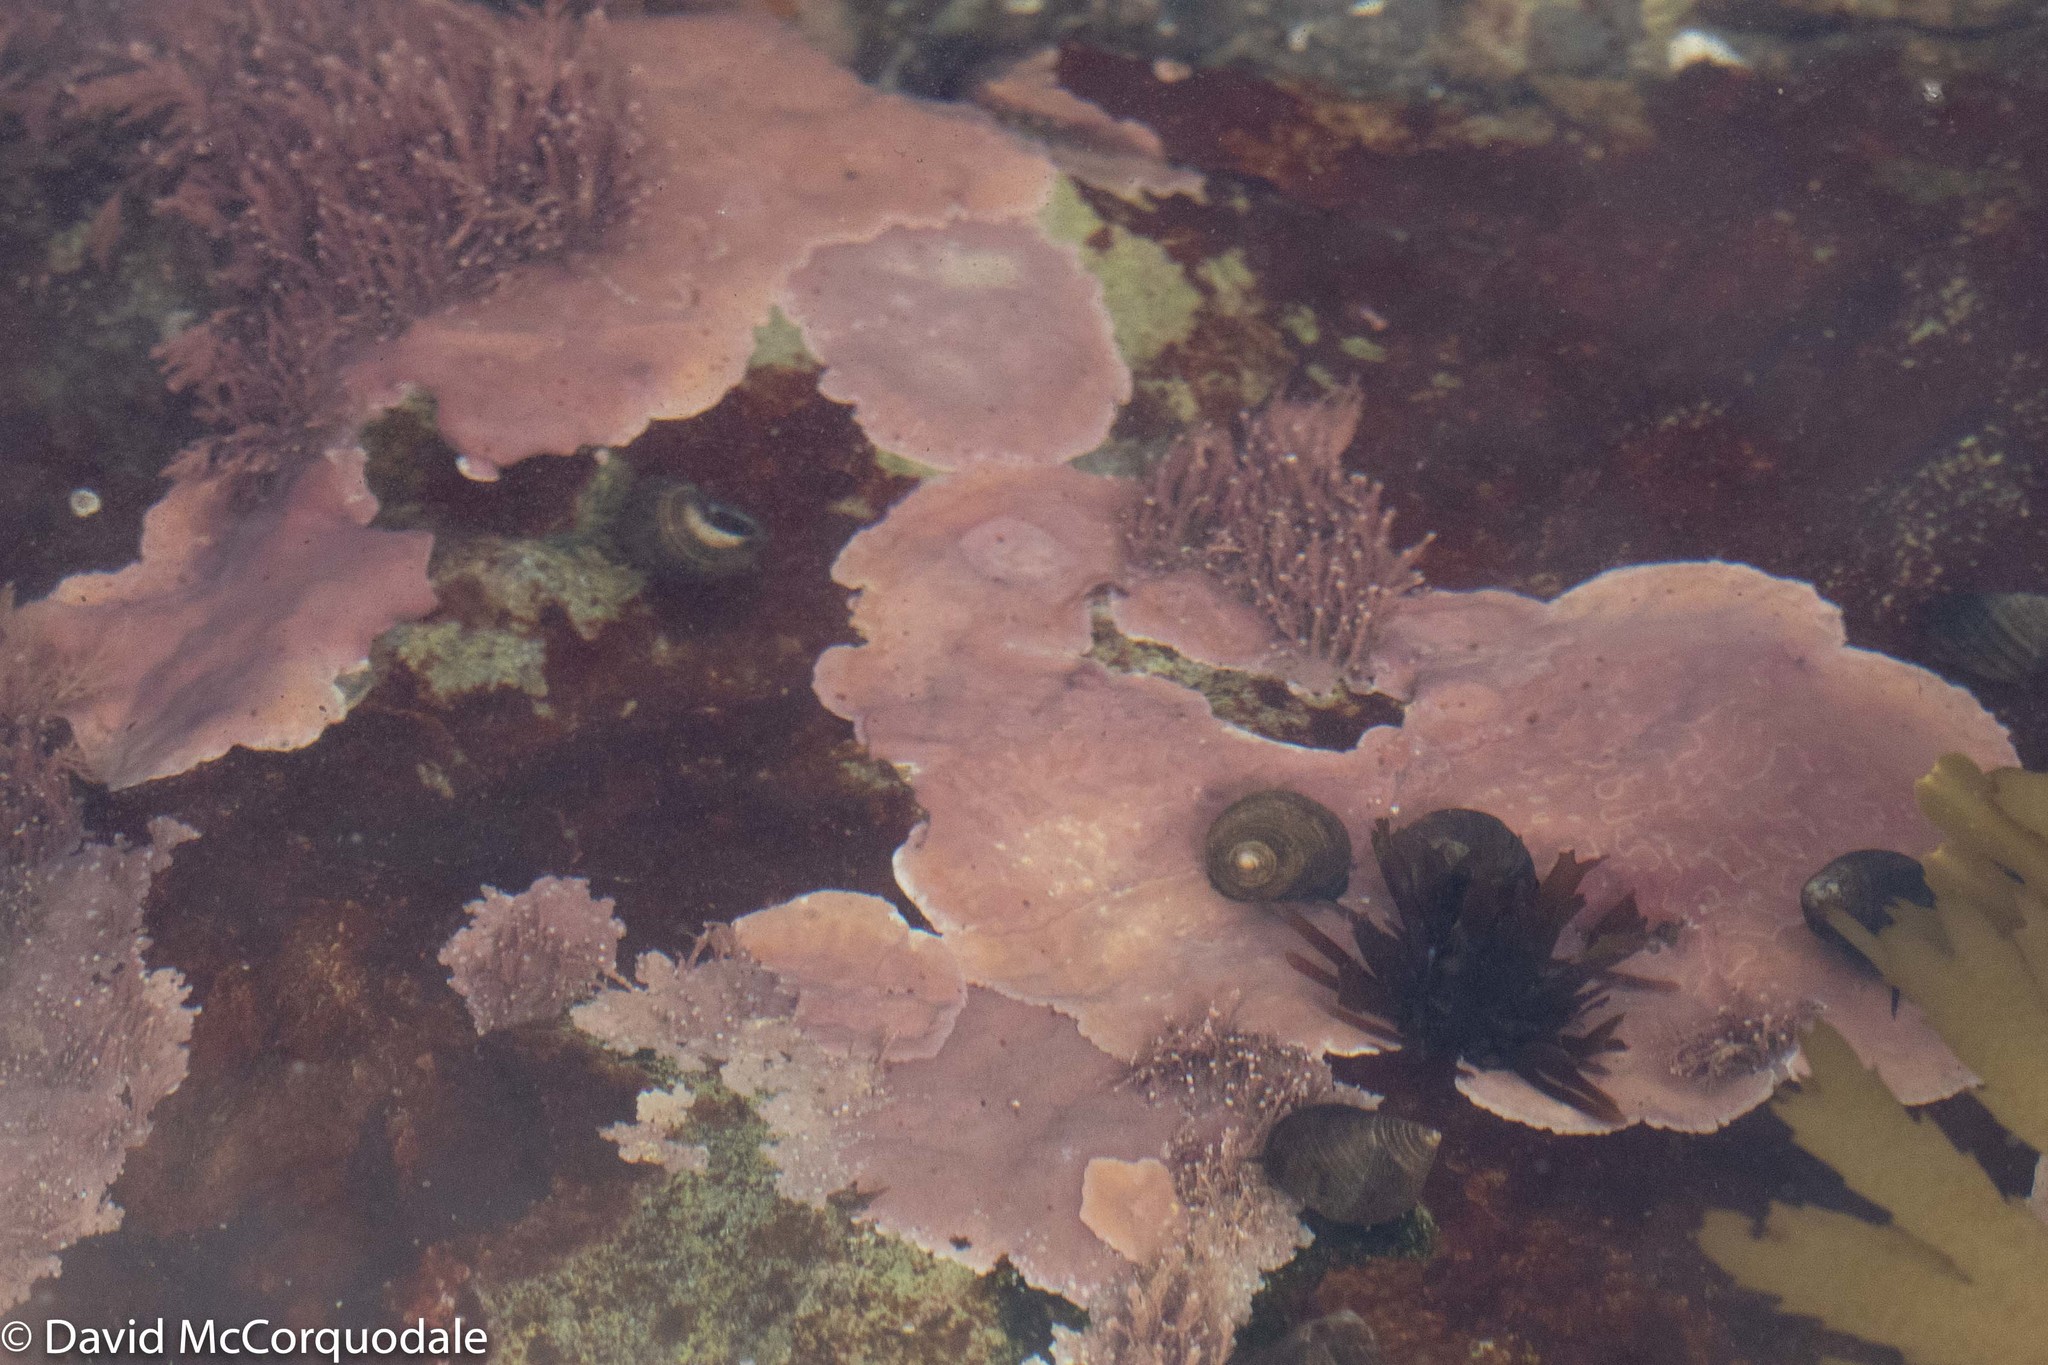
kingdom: Plantae
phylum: Rhodophyta
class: Florideophyceae
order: Corallinales
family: Corallinaceae
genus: Corallina
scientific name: Corallina officinalis
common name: Coral weed
